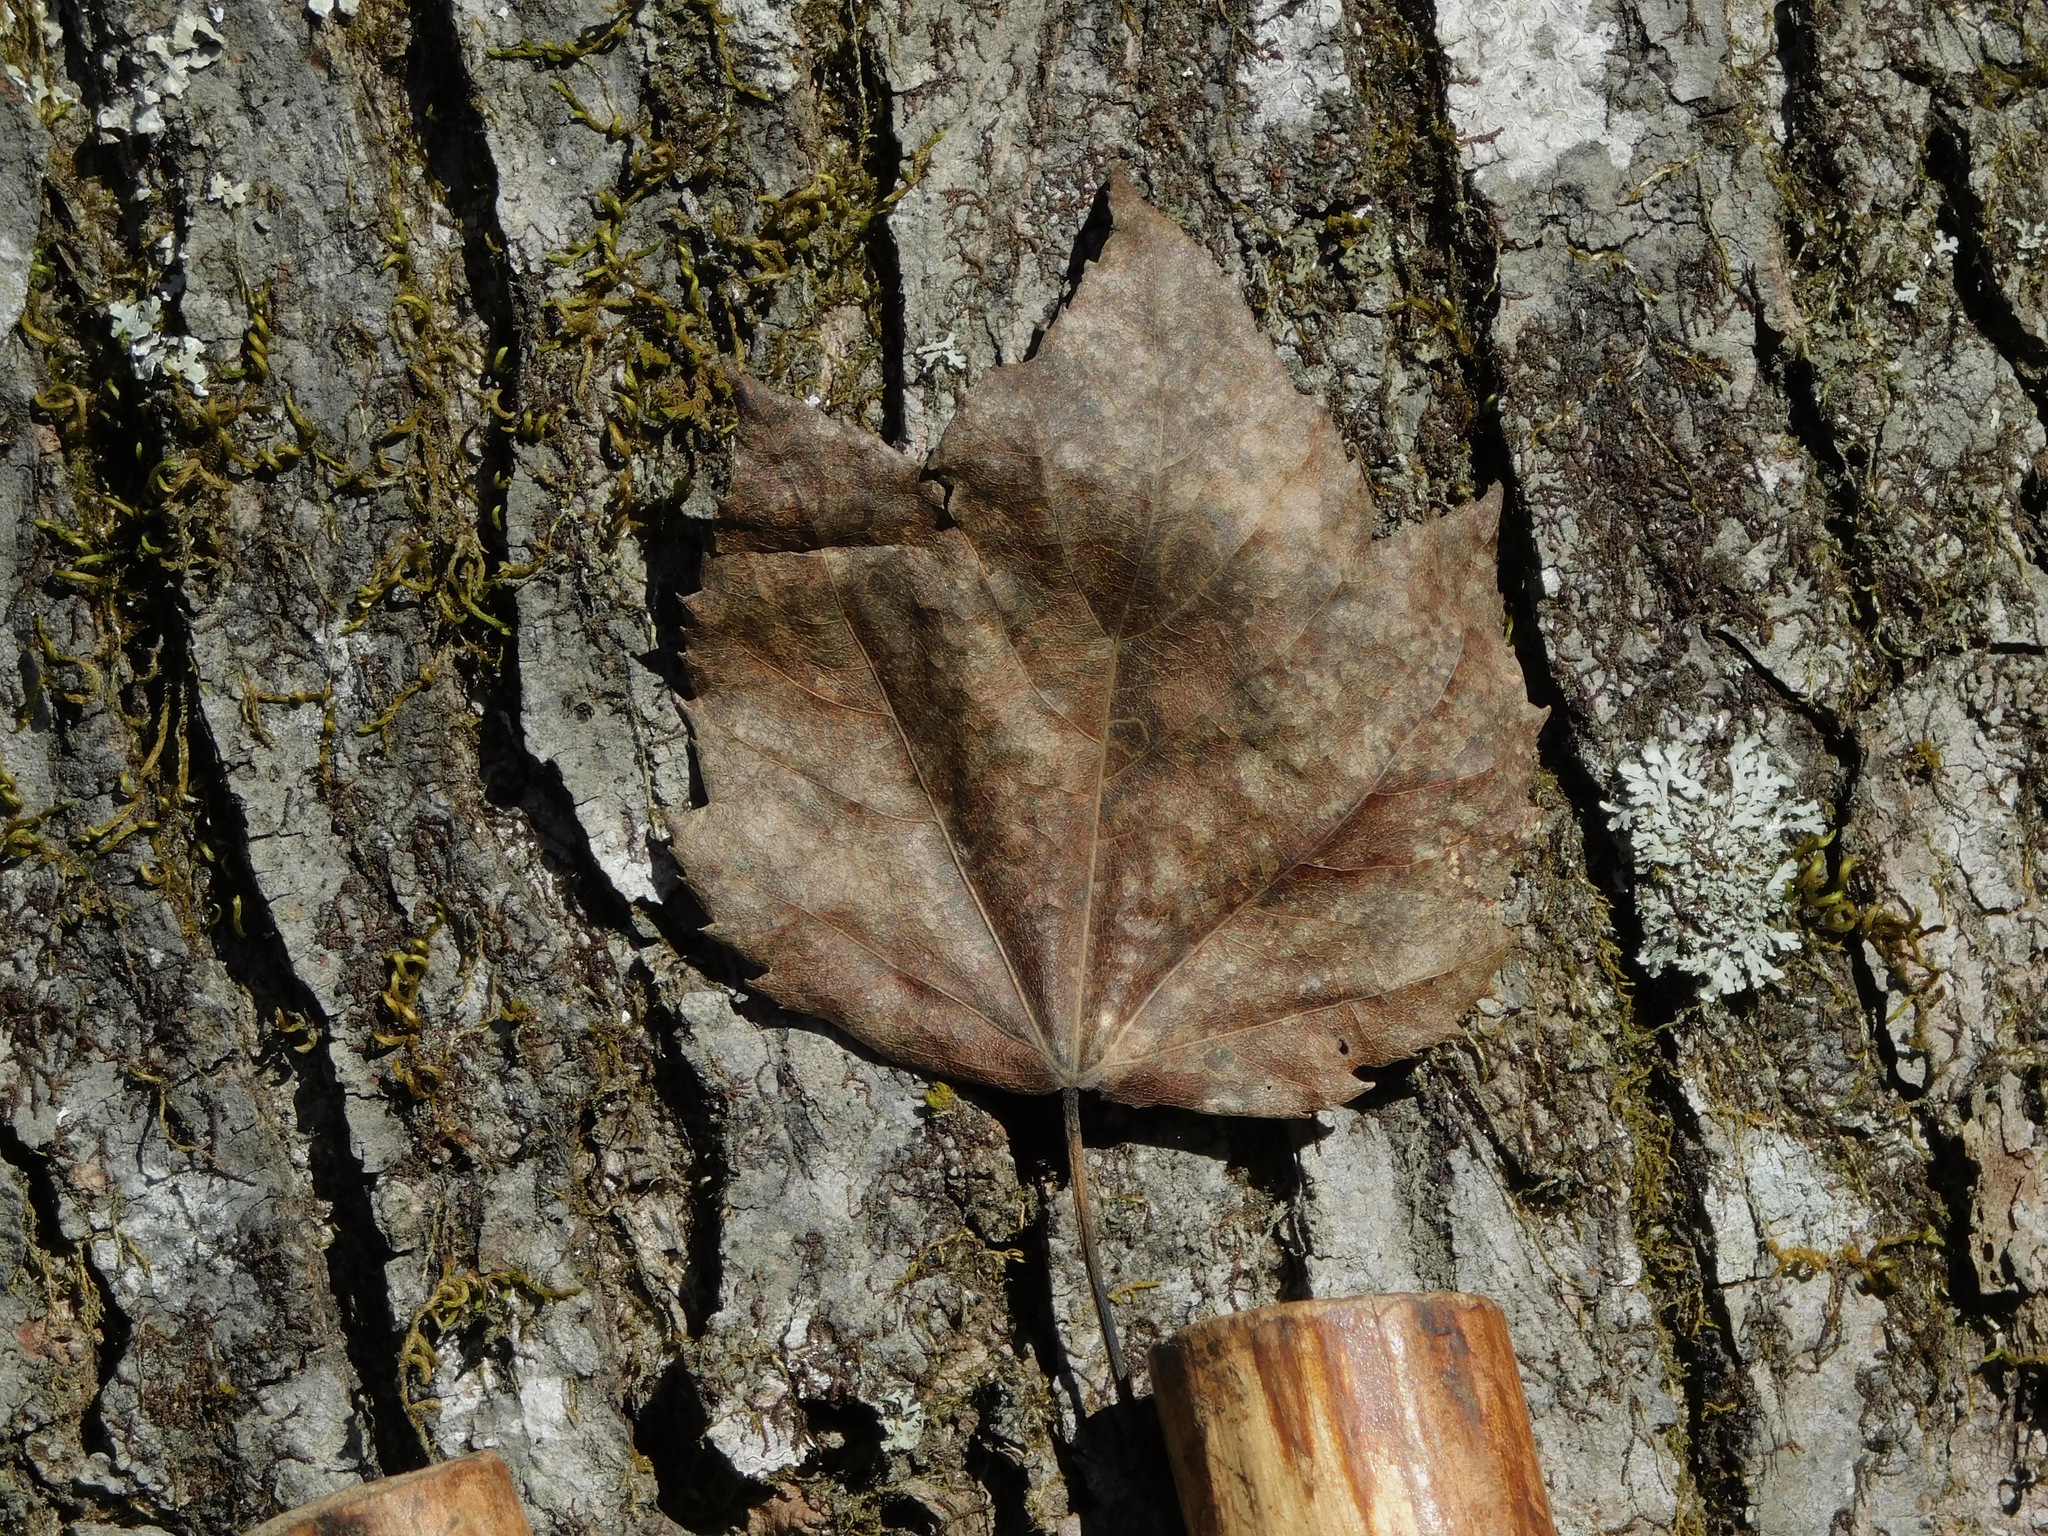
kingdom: Plantae
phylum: Tracheophyta
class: Magnoliopsida
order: Sapindales
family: Sapindaceae
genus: Acer
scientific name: Acer rubrum
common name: Red maple
